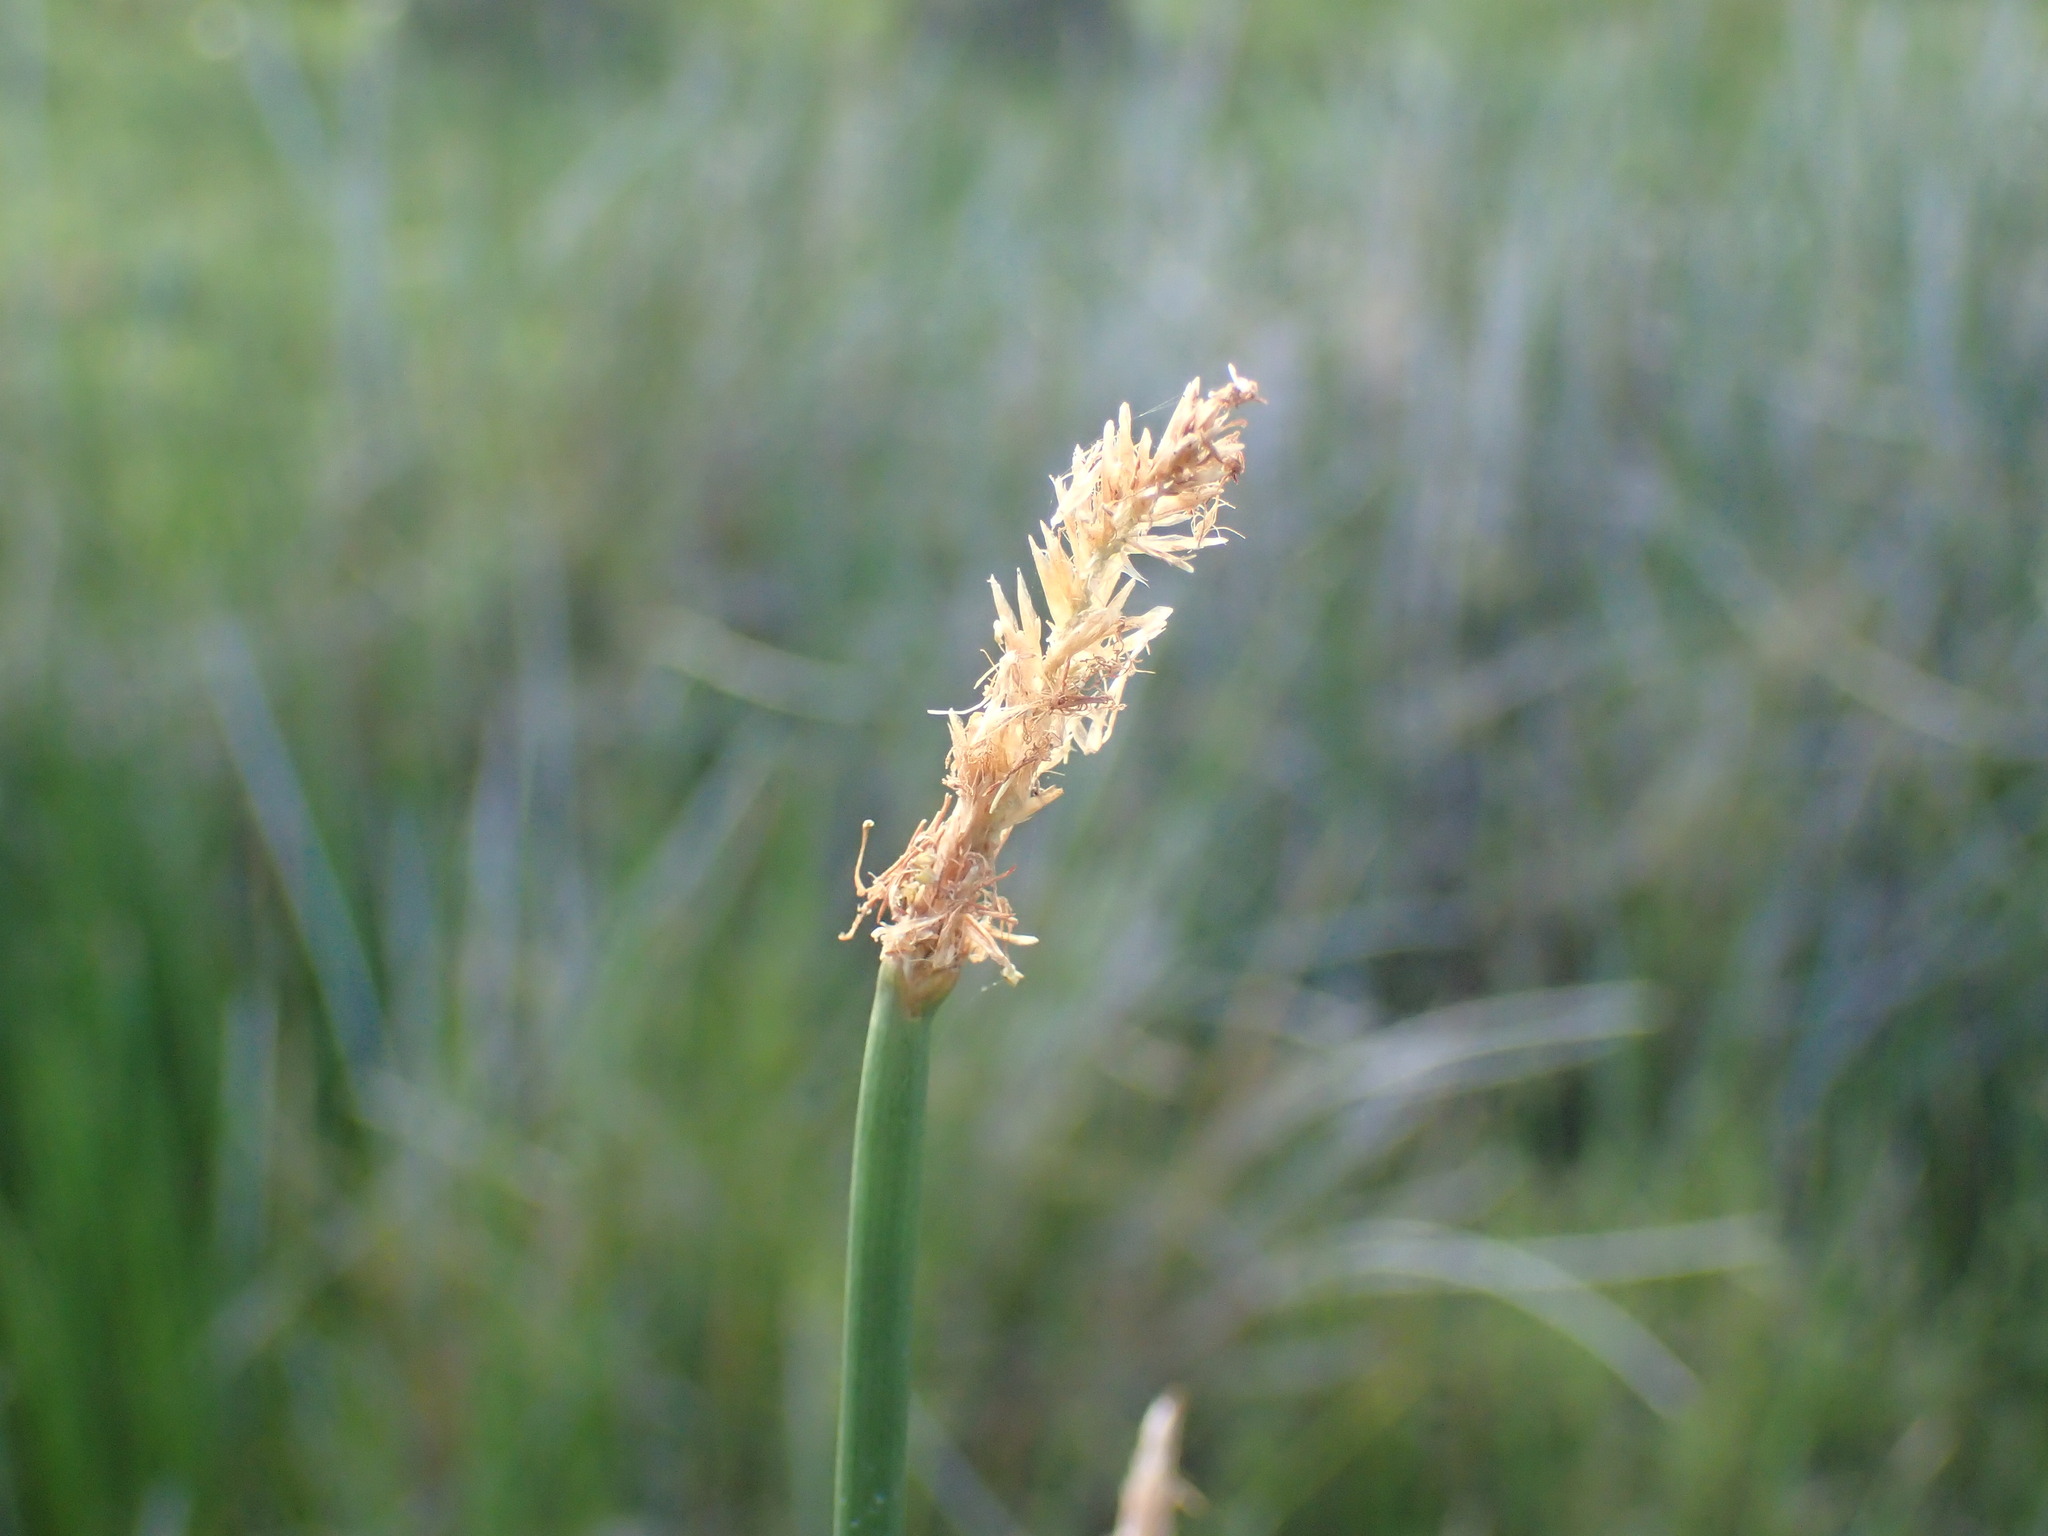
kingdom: Plantae
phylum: Tracheophyta
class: Liliopsida
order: Poales
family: Cyperaceae
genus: Eleocharis
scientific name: Eleocharis limosa
